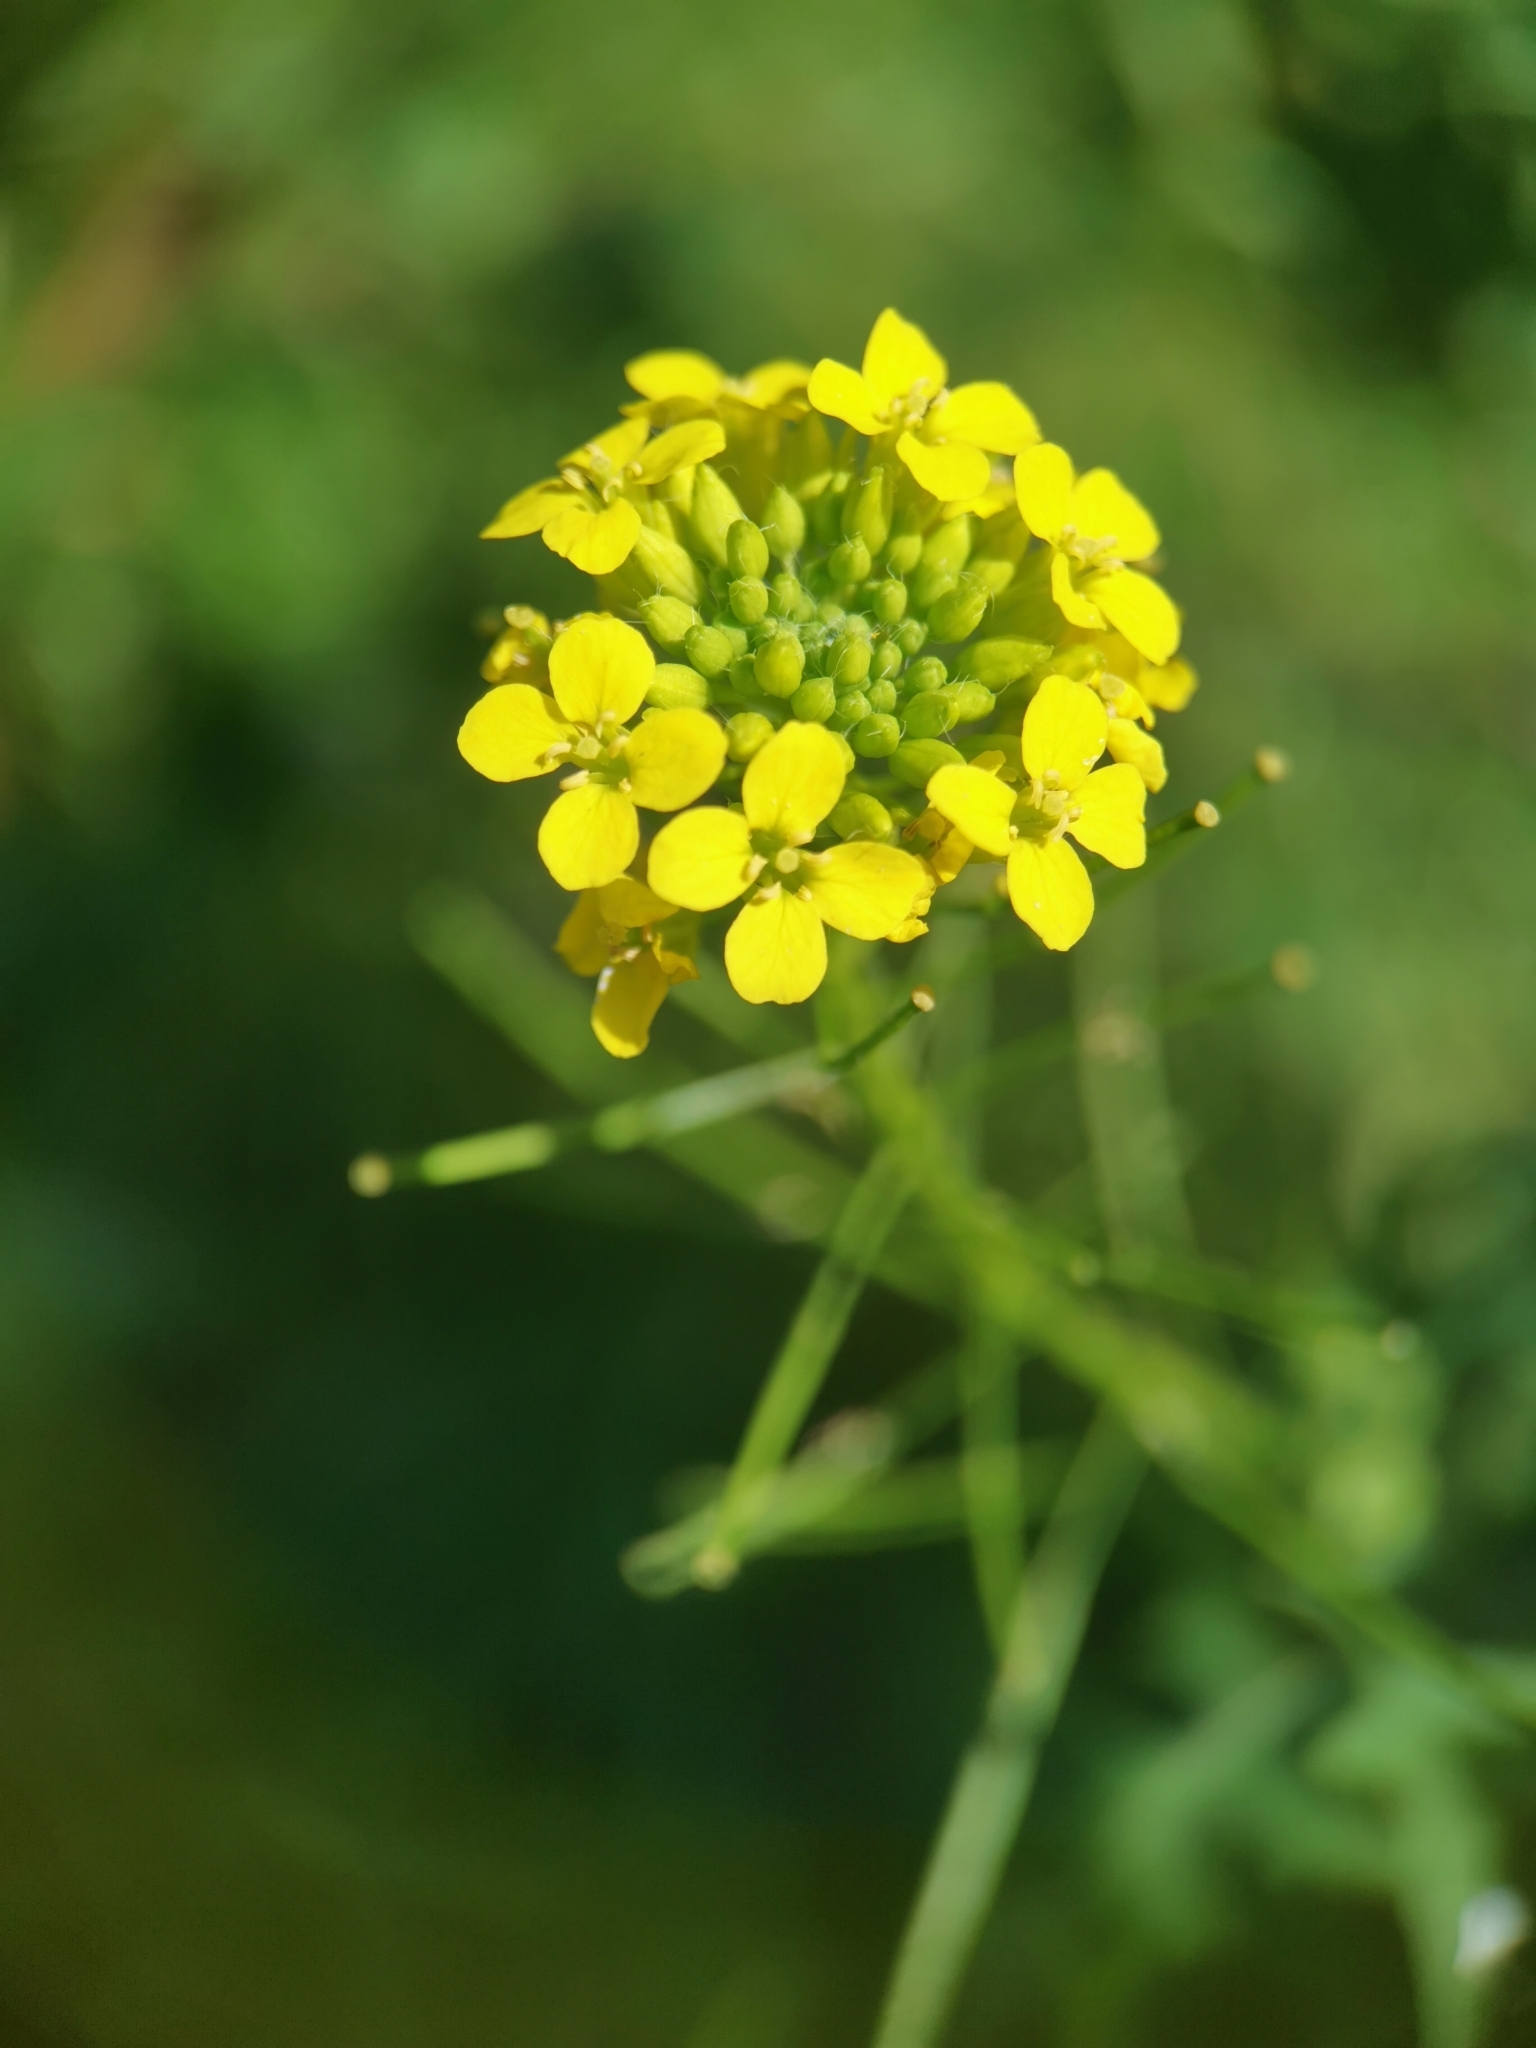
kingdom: Plantae
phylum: Tracheophyta
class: Magnoliopsida
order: Brassicales
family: Brassicaceae
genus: Sisymbrium
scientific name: Sisymbrium loeselii
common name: False london-rocket
